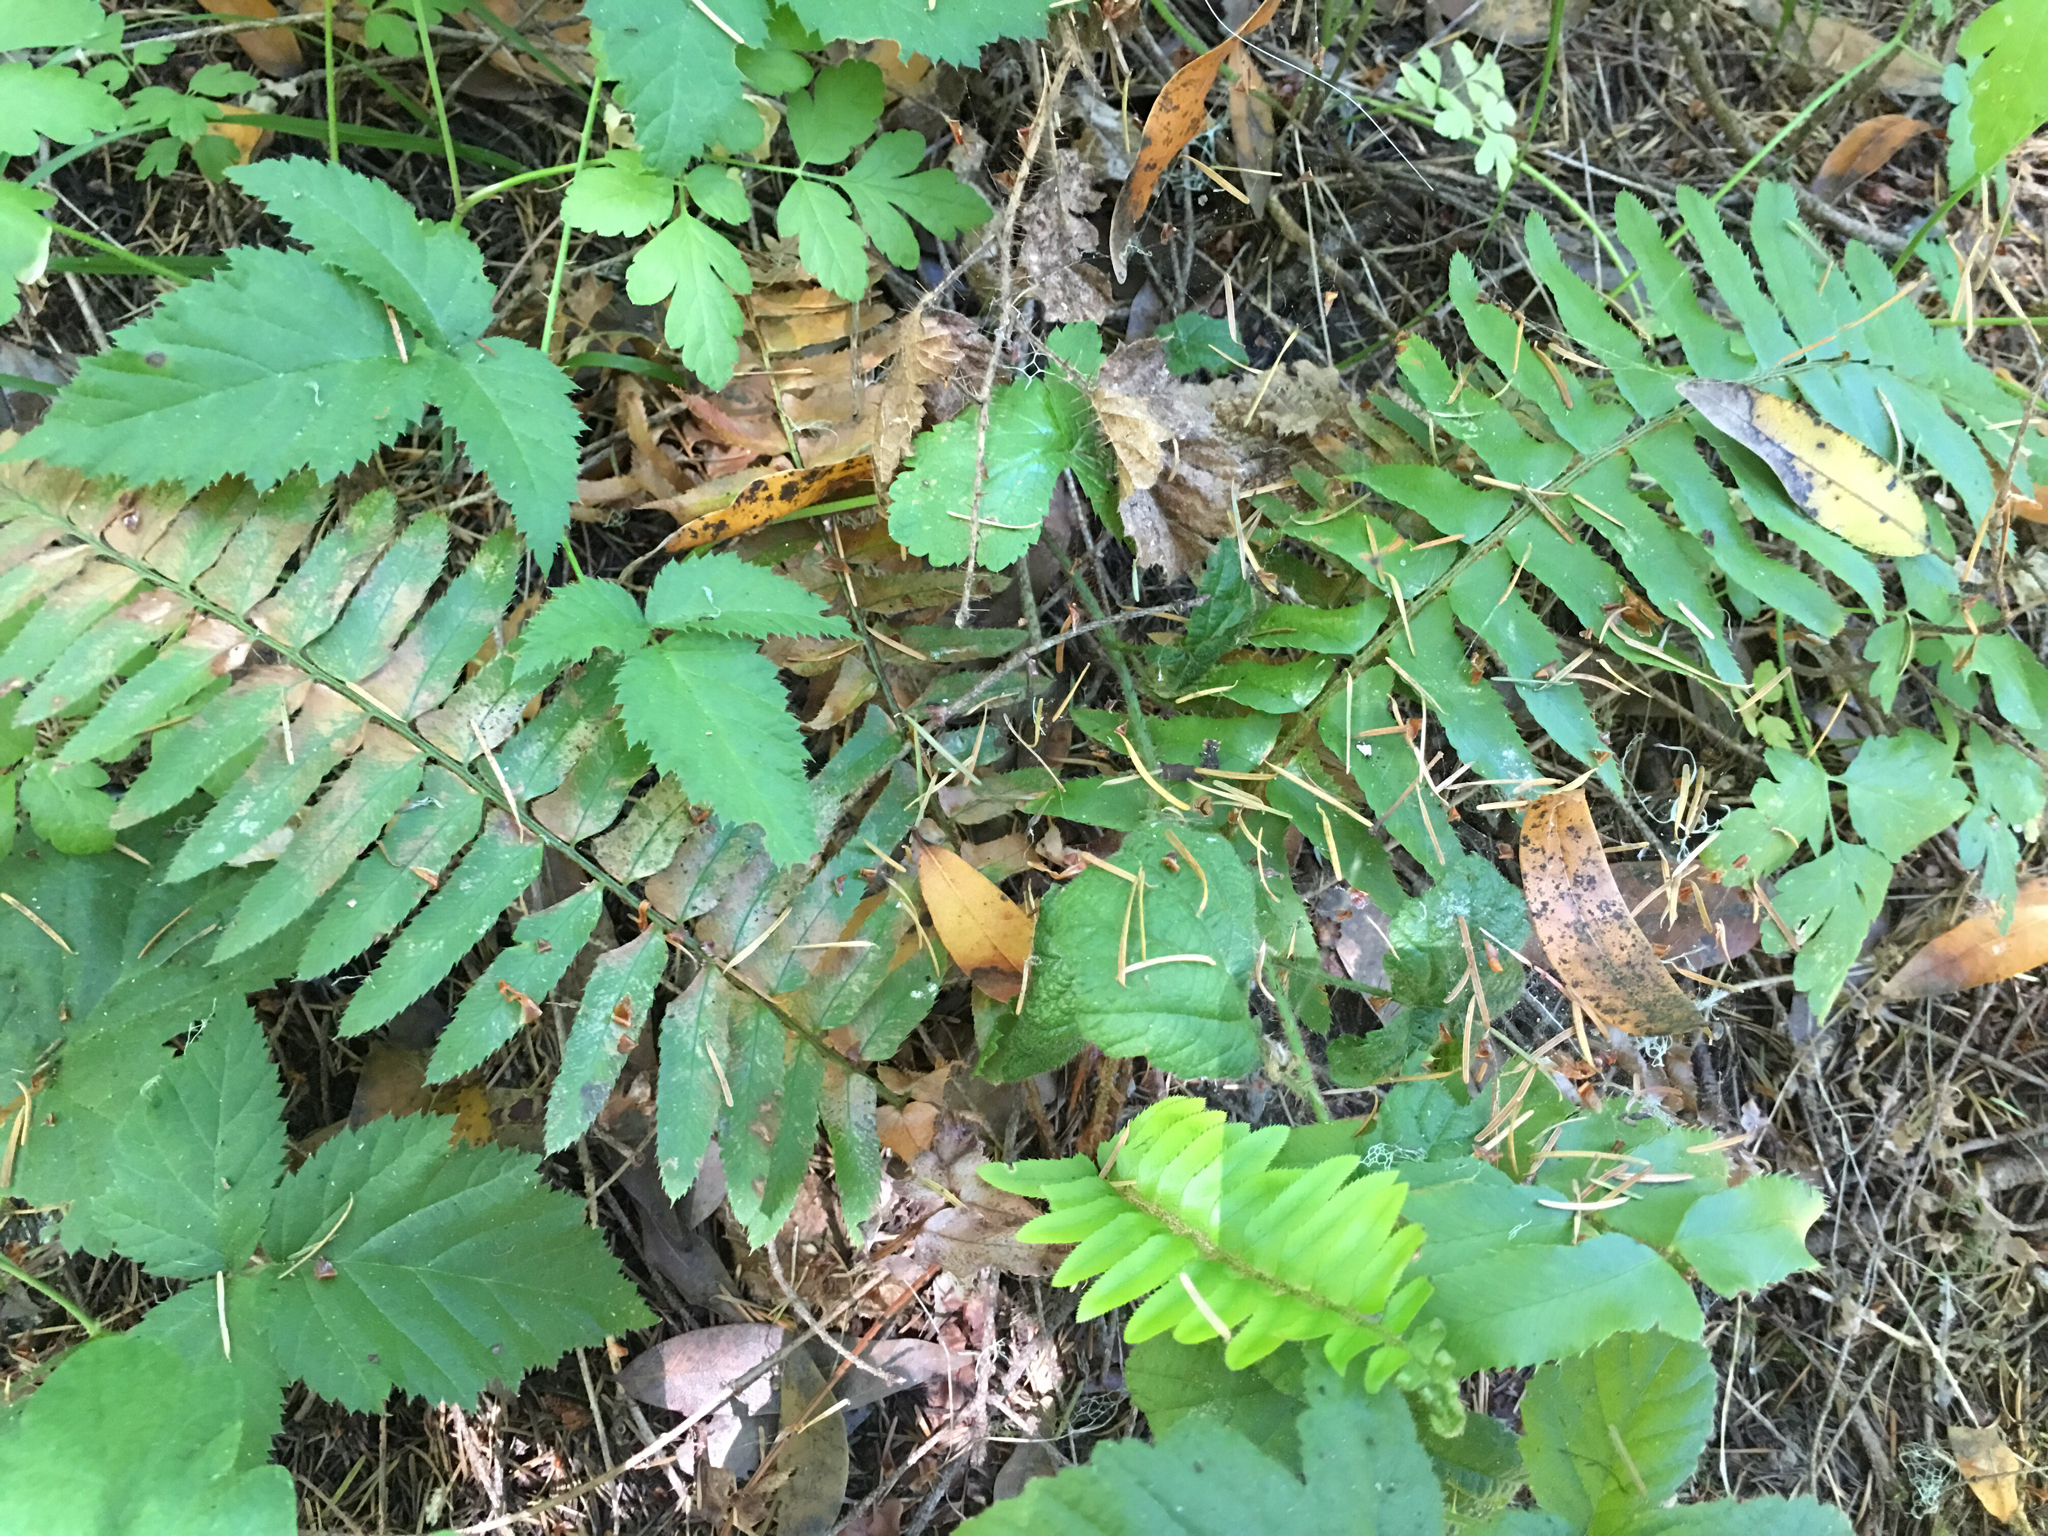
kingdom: Plantae
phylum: Tracheophyta
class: Polypodiopsida
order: Polypodiales
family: Dryopteridaceae
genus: Polystichum
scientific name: Polystichum munitum
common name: Western sword-fern
